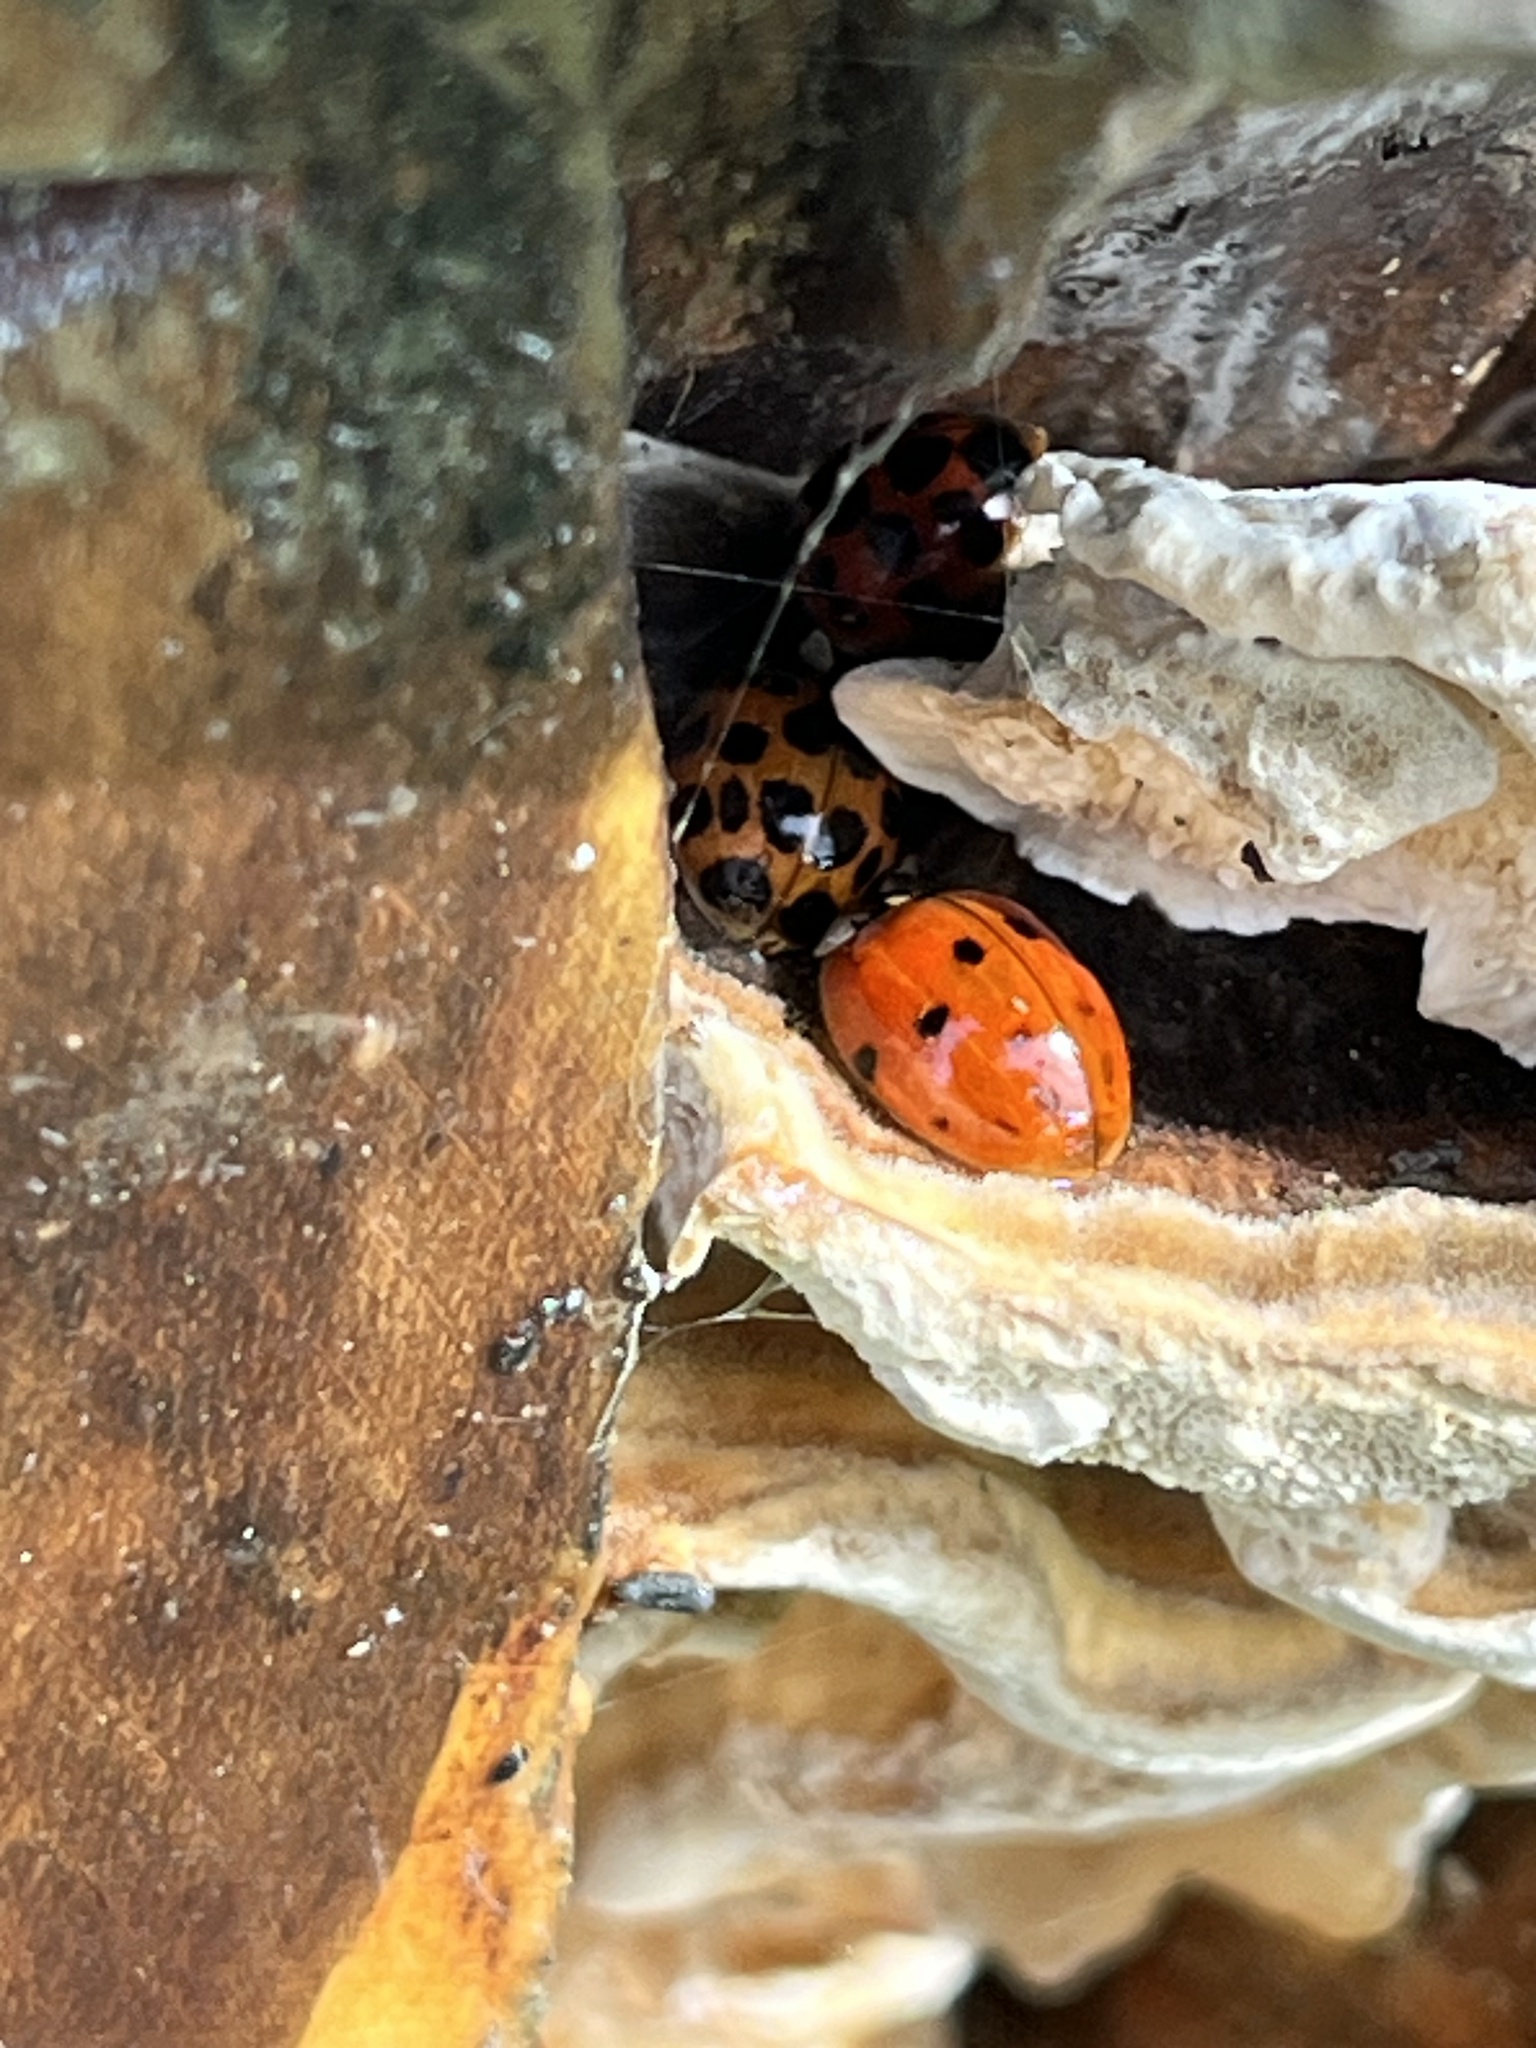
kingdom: Animalia
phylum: Arthropoda
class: Insecta
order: Coleoptera
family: Coccinellidae
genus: Harmonia
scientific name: Harmonia axyridis
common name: Harlequin ladybird
